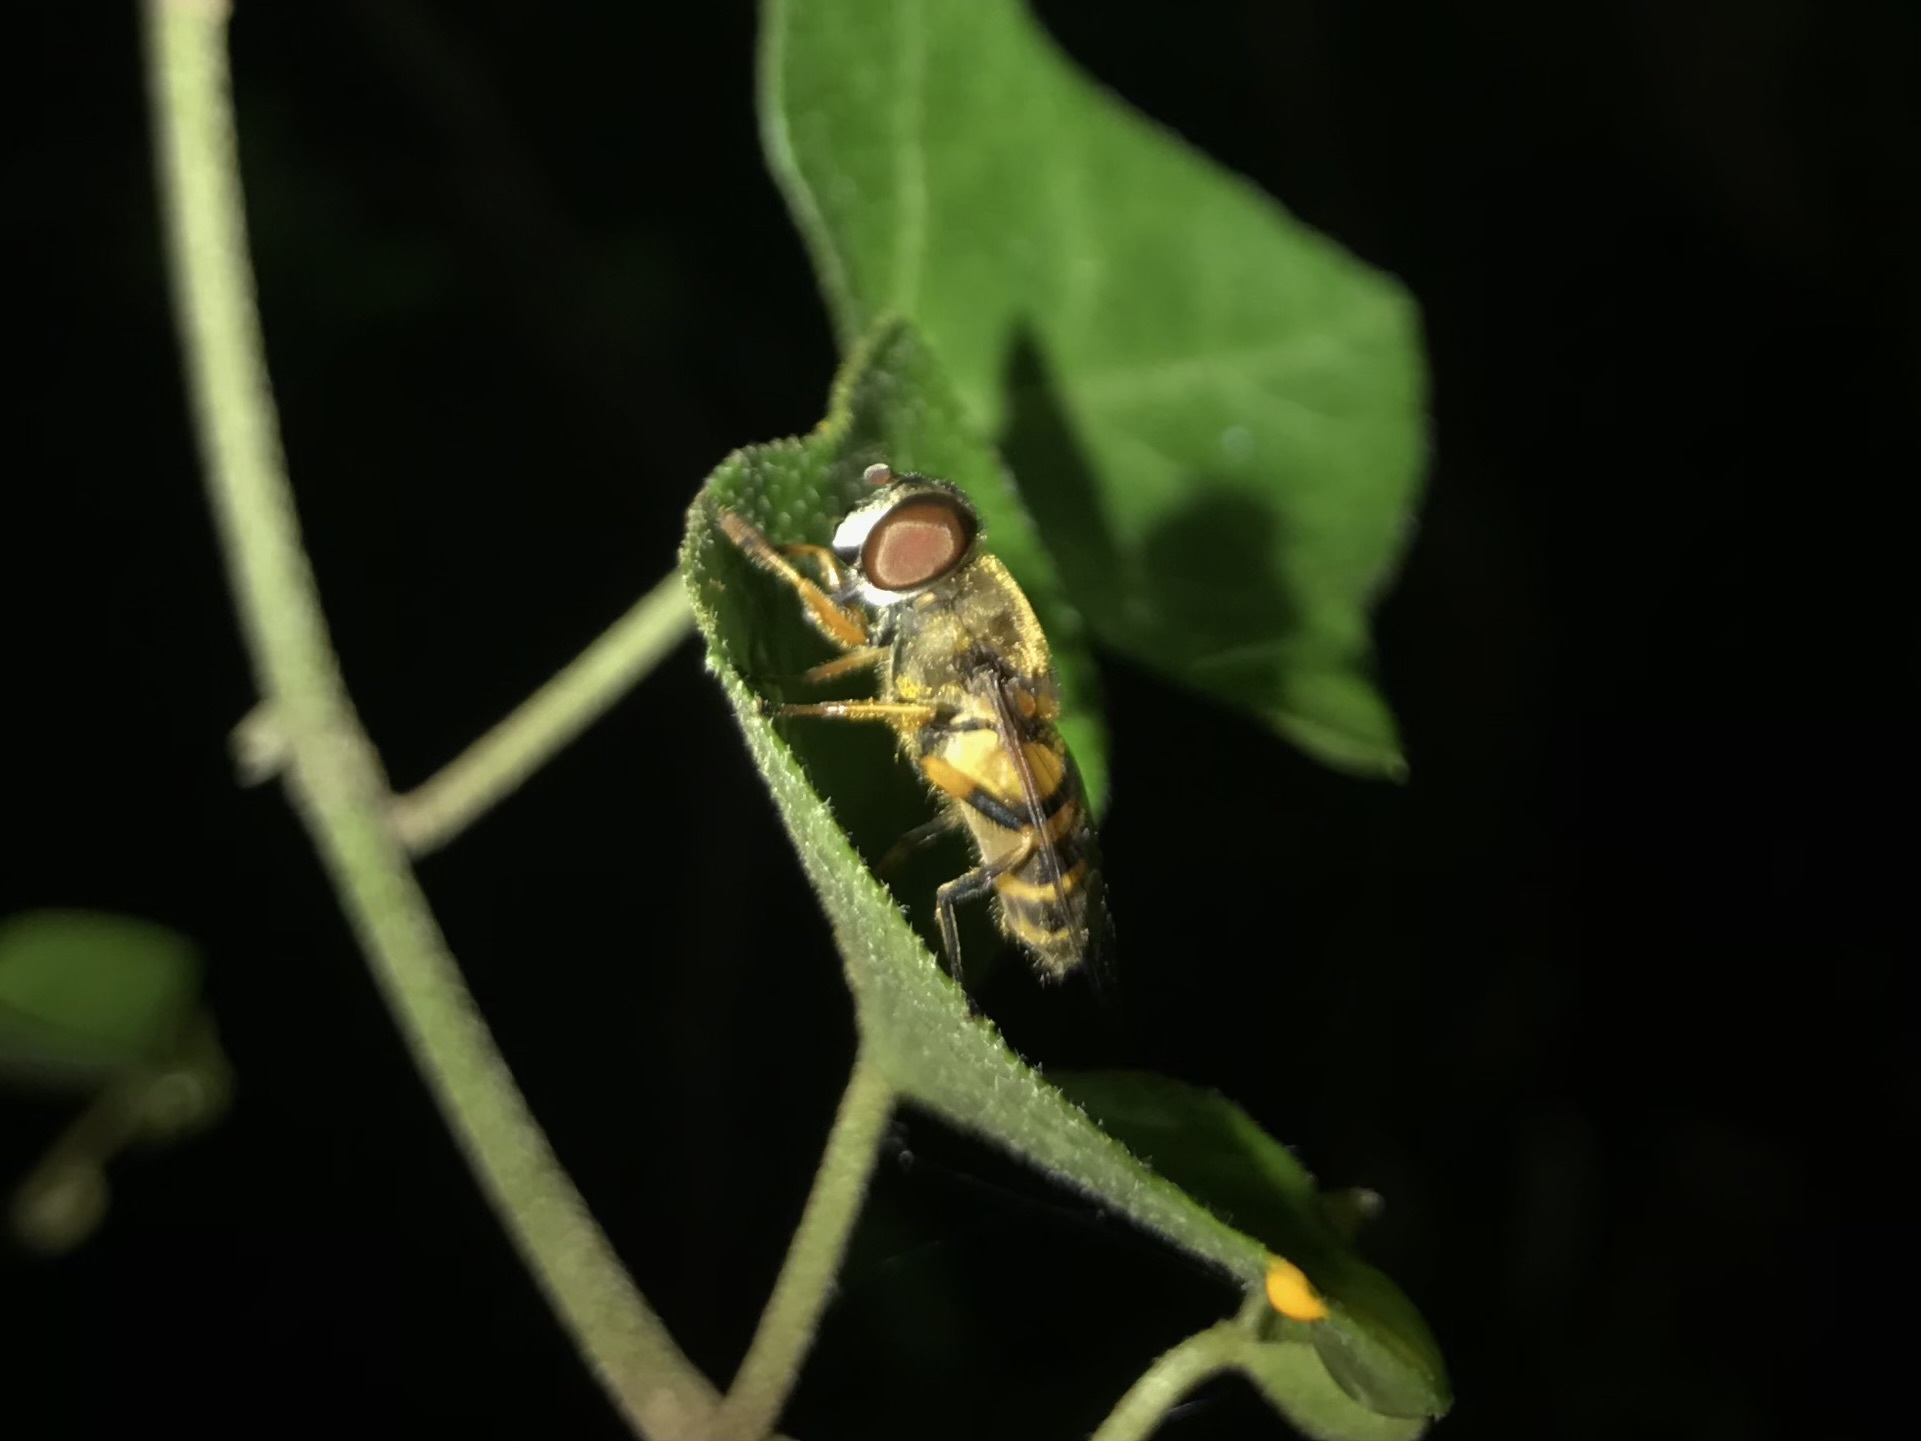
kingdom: Animalia
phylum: Arthropoda
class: Insecta
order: Diptera
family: Syrphidae
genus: Eristalis
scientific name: Eristalis transversa
